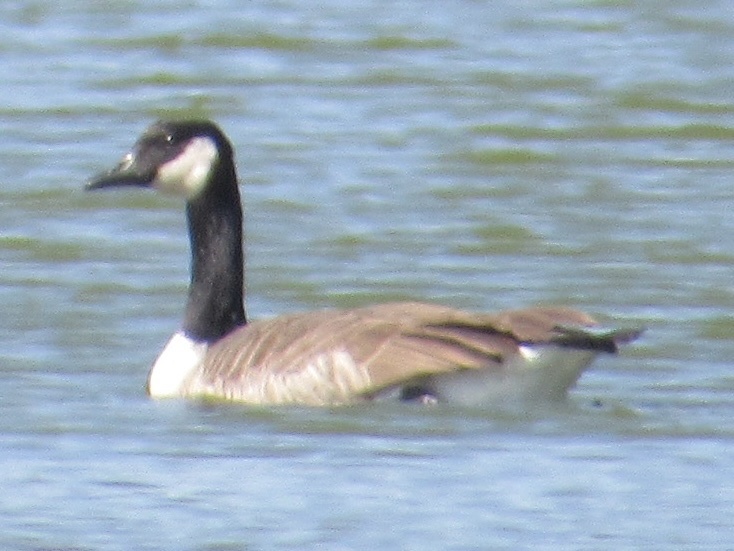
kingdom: Animalia
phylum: Chordata
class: Aves
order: Anseriformes
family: Anatidae
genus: Branta
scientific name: Branta canadensis
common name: Canada goose
